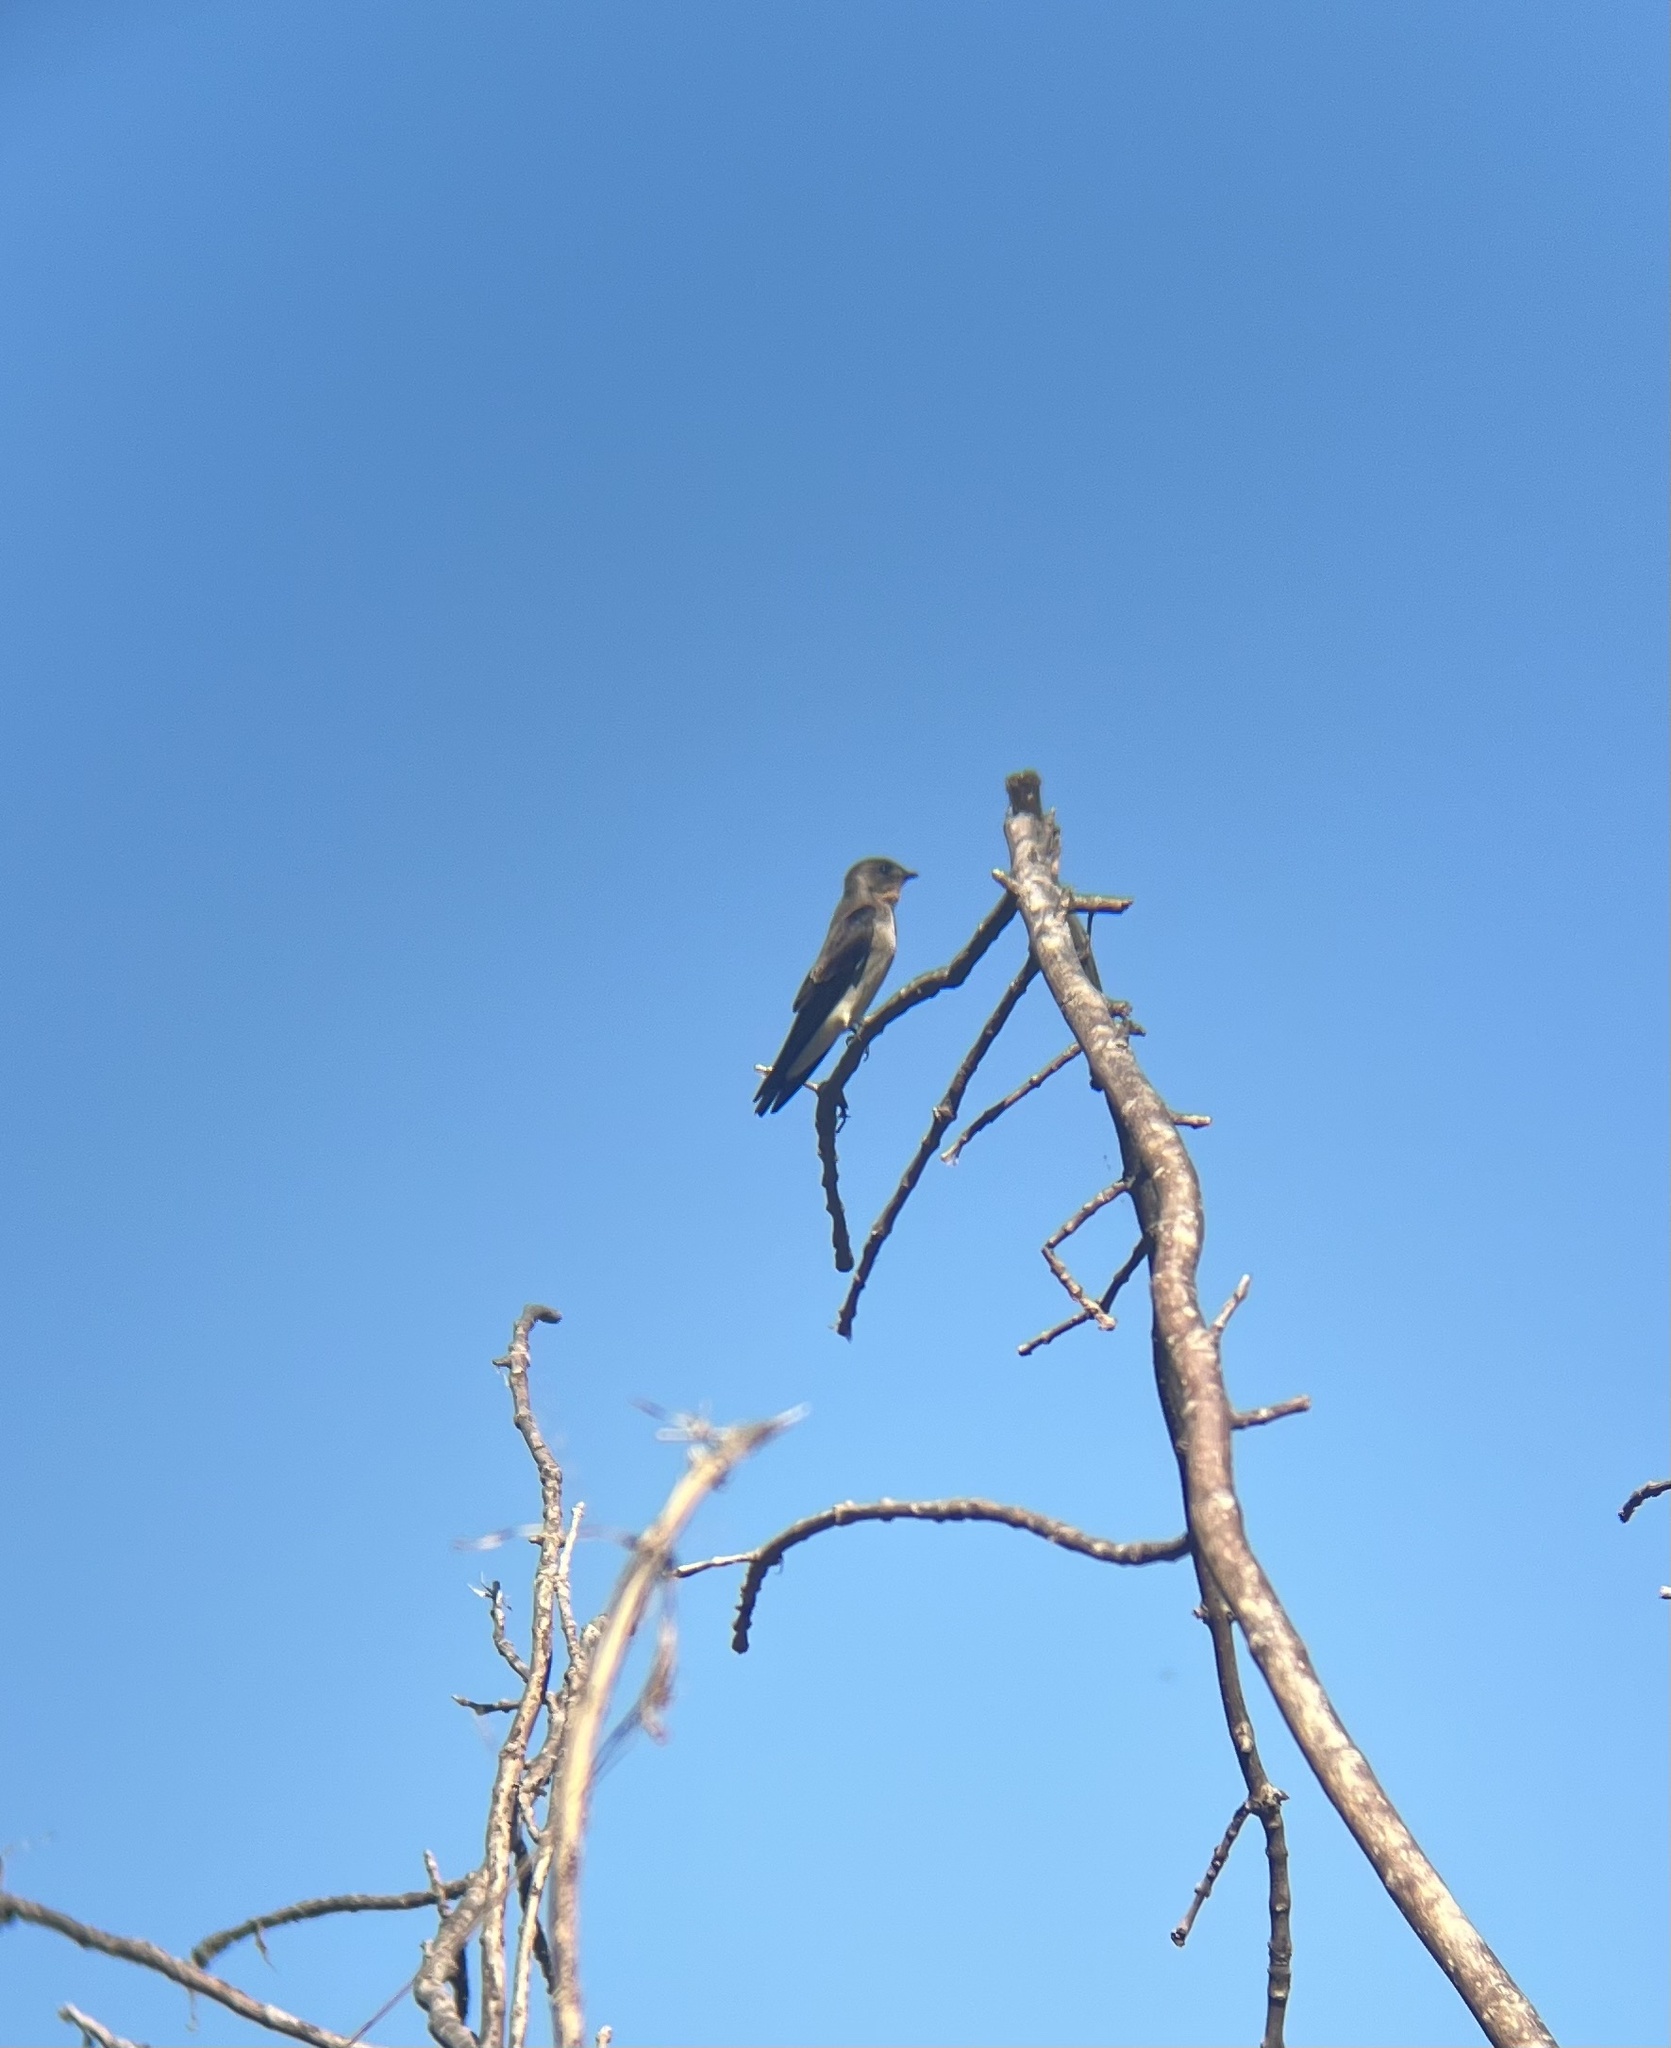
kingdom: Animalia
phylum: Chordata
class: Aves
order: Passeriformes
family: Hirundinidae
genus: Stelgidopteryx
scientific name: Stelgidopteryx ruficollis
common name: Southern rough-winged swallow
